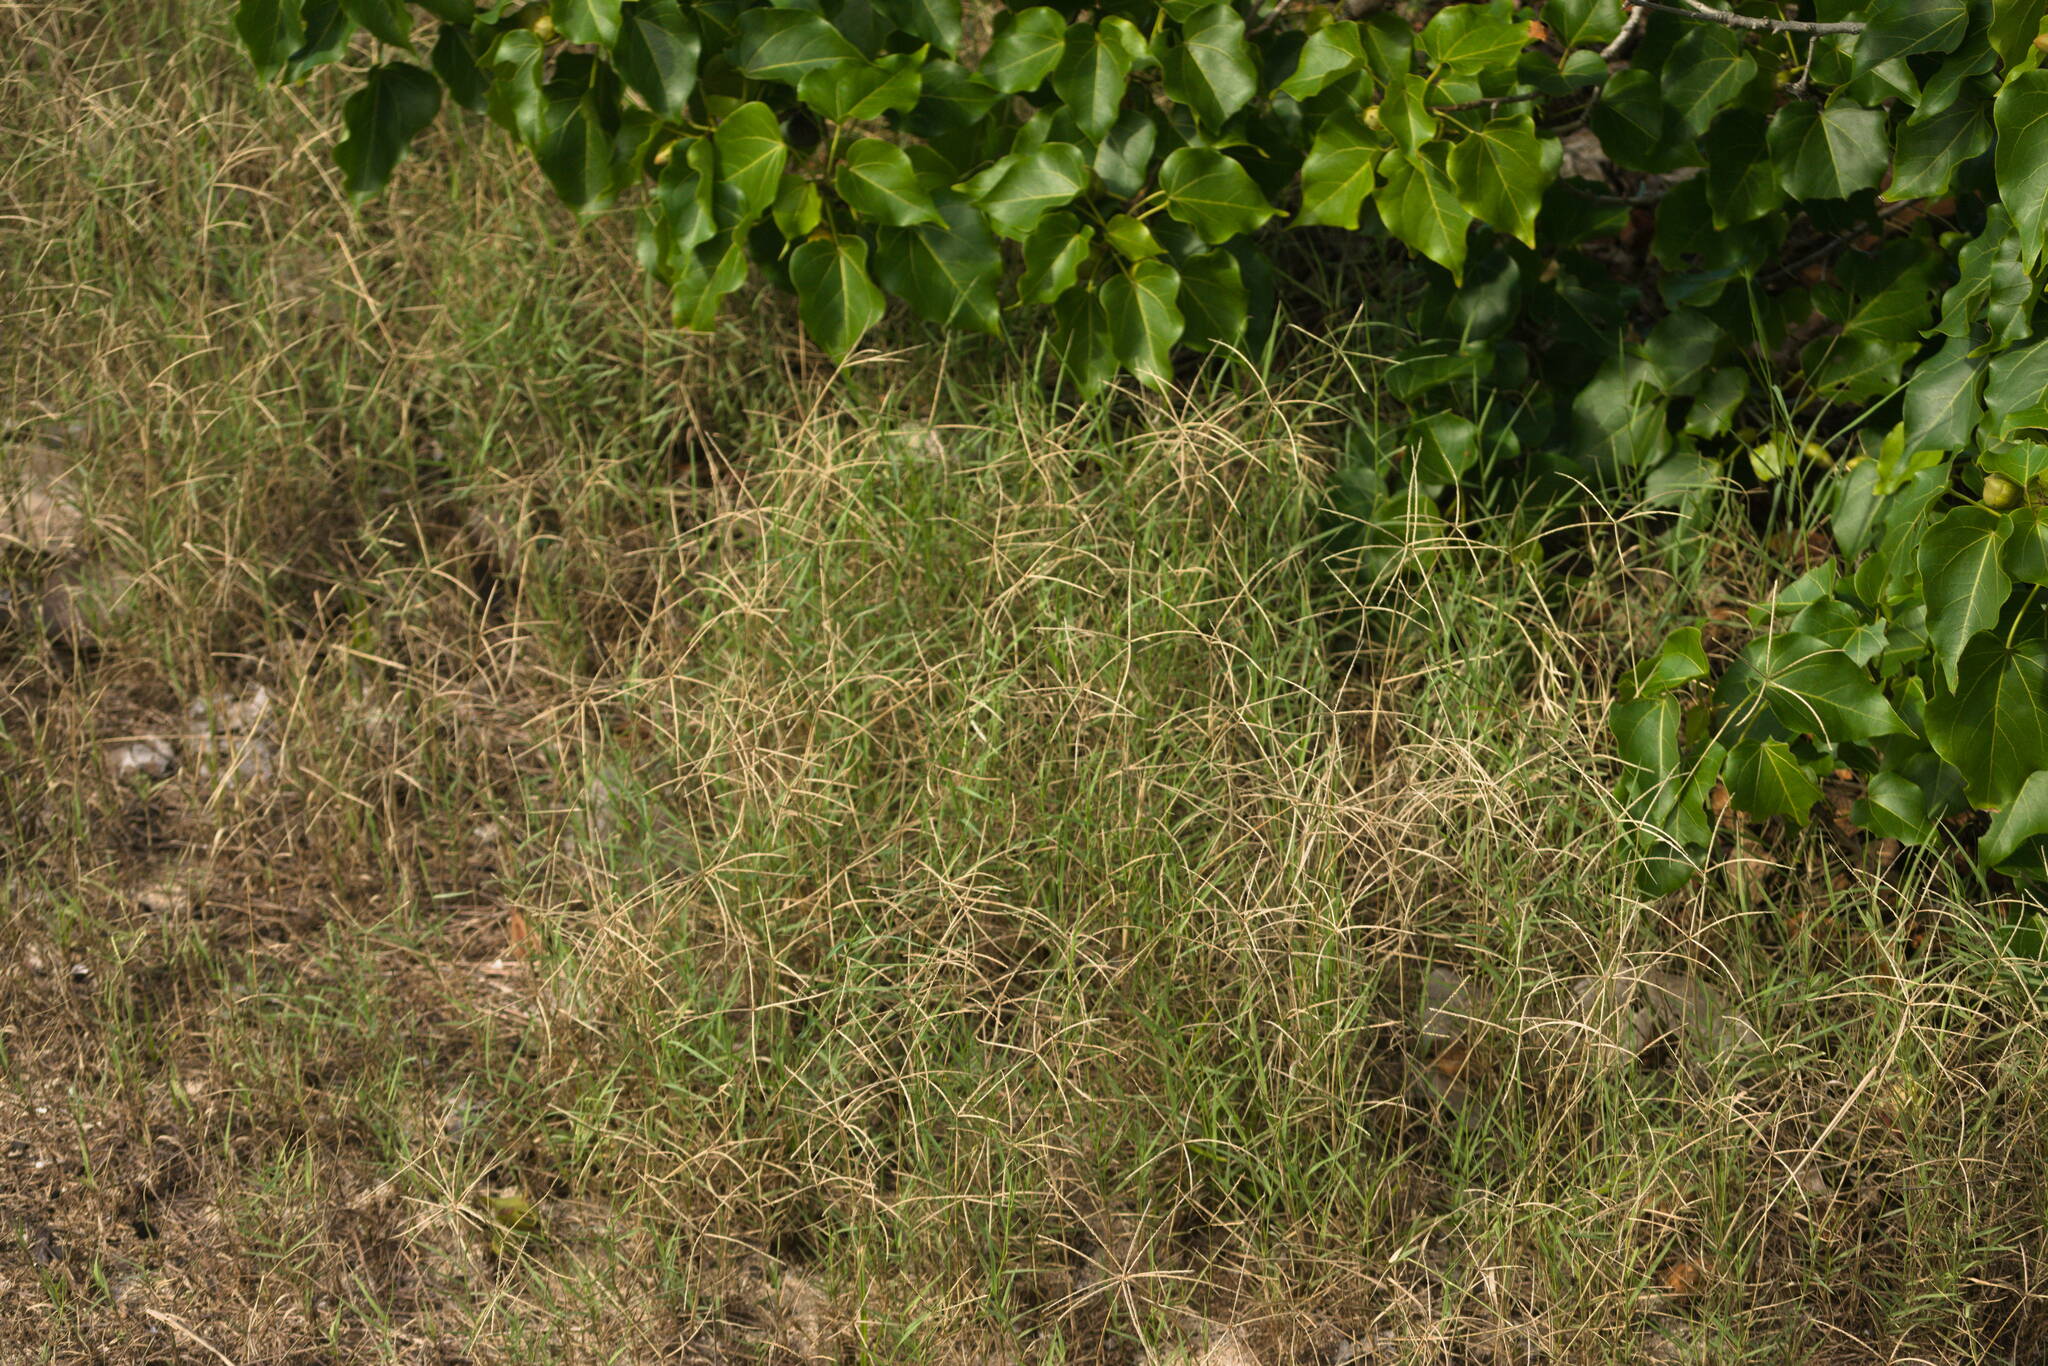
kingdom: Plantae
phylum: Tracheophyta
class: Liliopsida
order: Poales
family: Poaceae
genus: Cynodon
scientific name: Cynodon dactylon
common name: Bermuda grass
